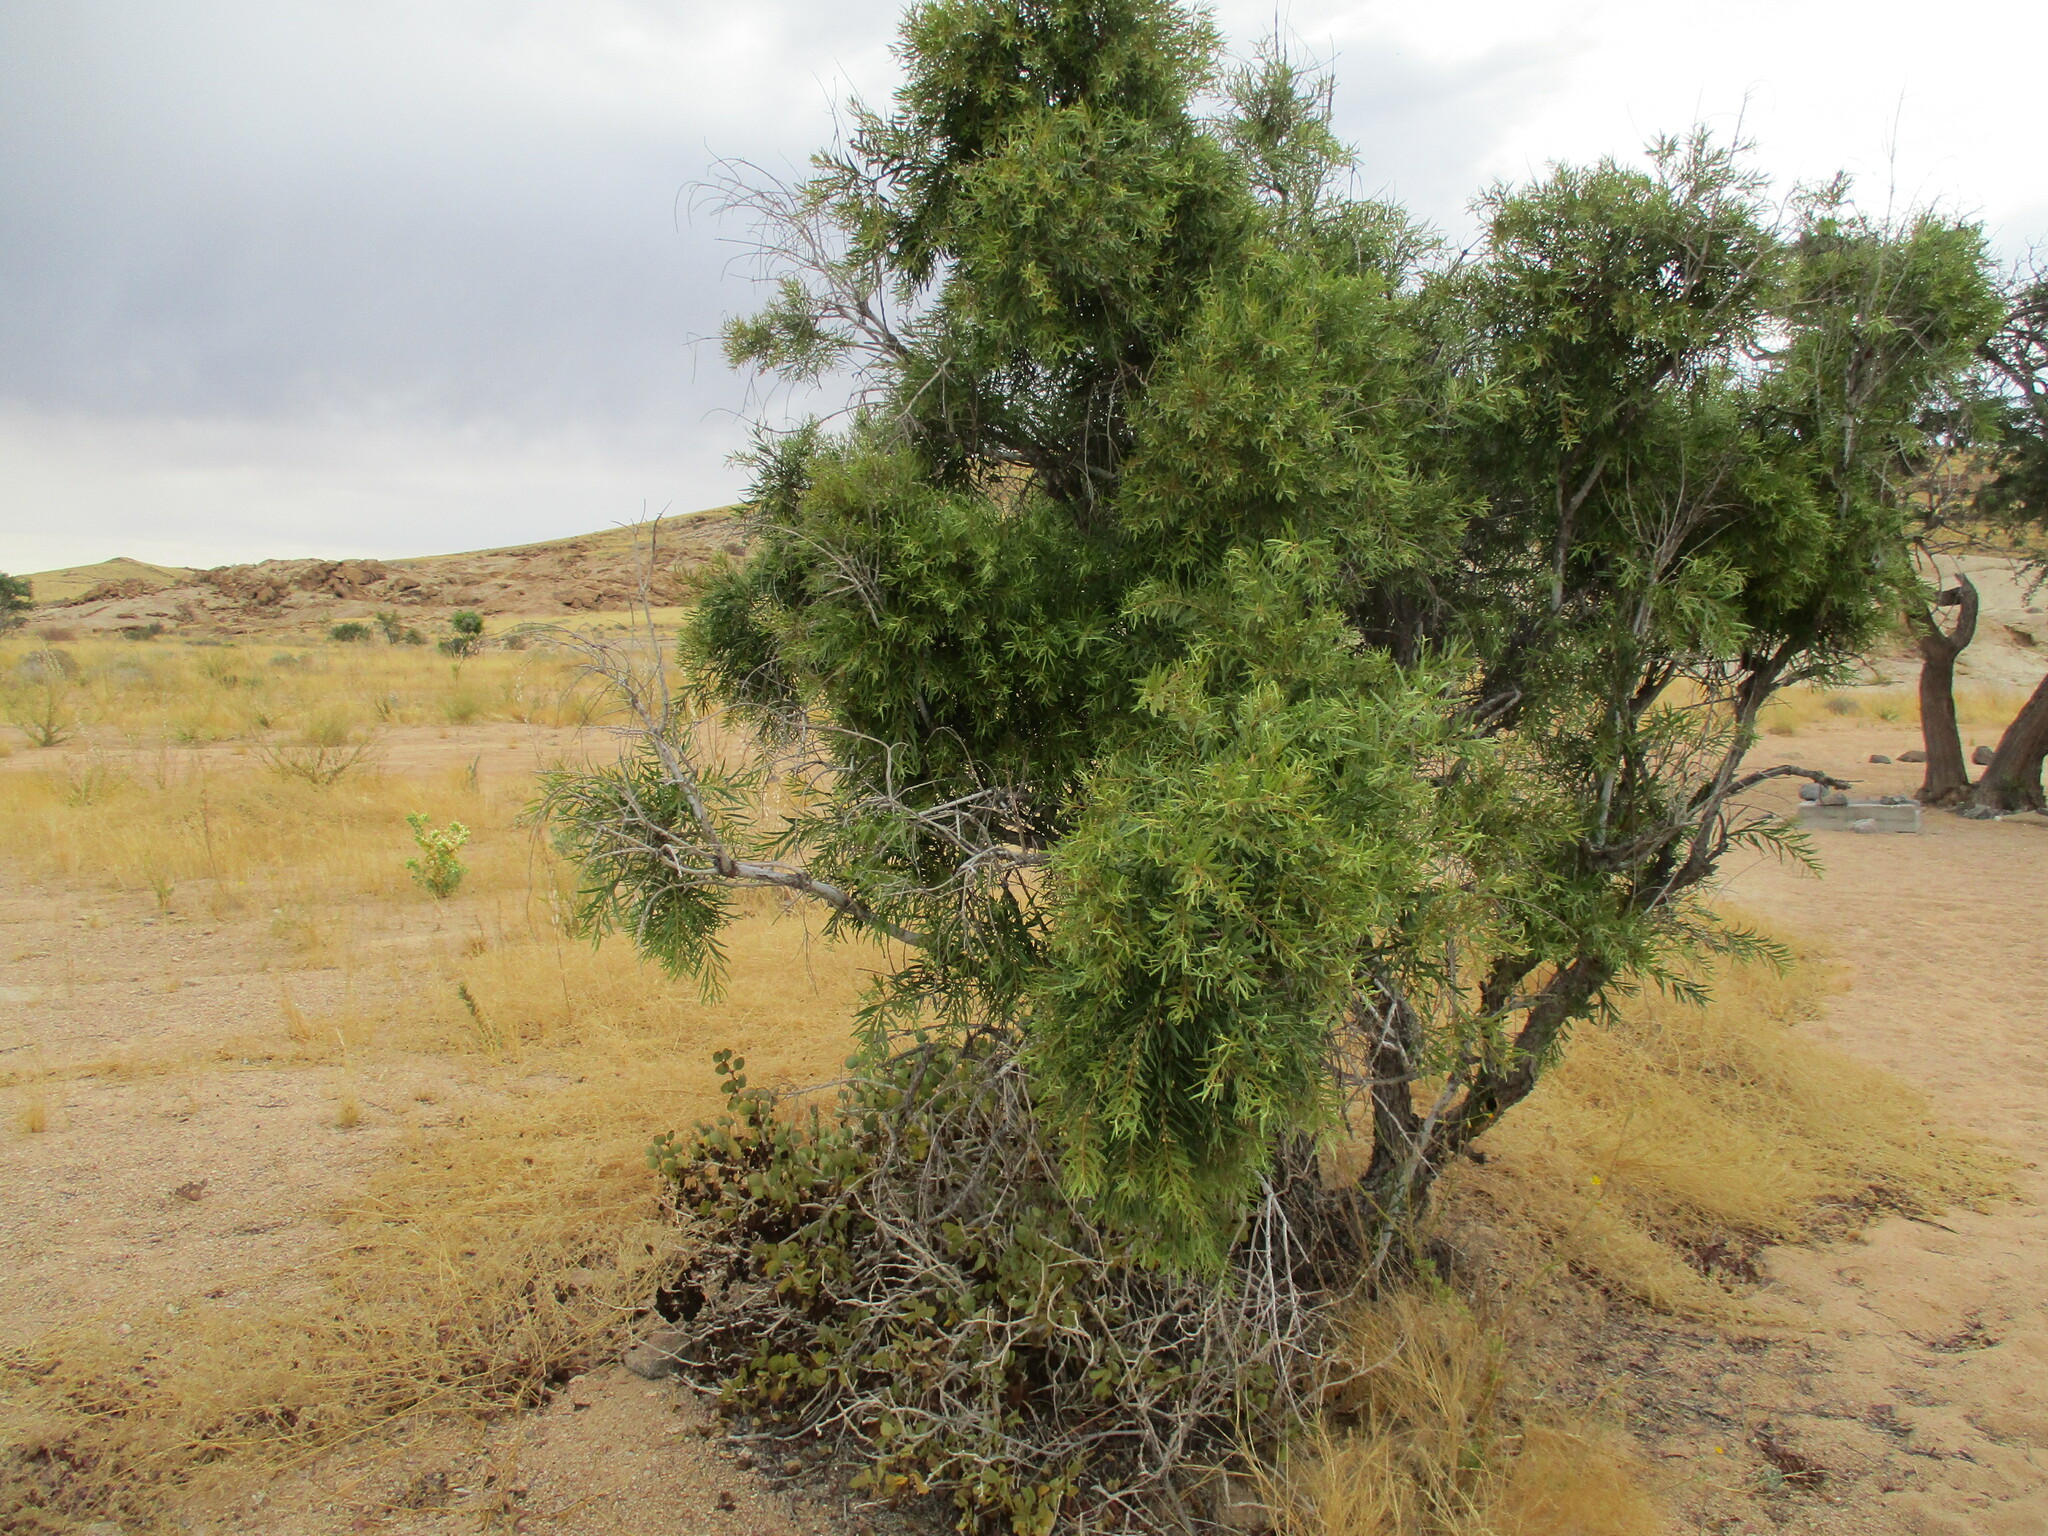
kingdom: Plantae
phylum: Tracheophyta
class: Magnoliopsida
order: Ericales
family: Ebenaceae
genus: Euclea
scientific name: Euclea pseudebenus
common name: Black ebony
